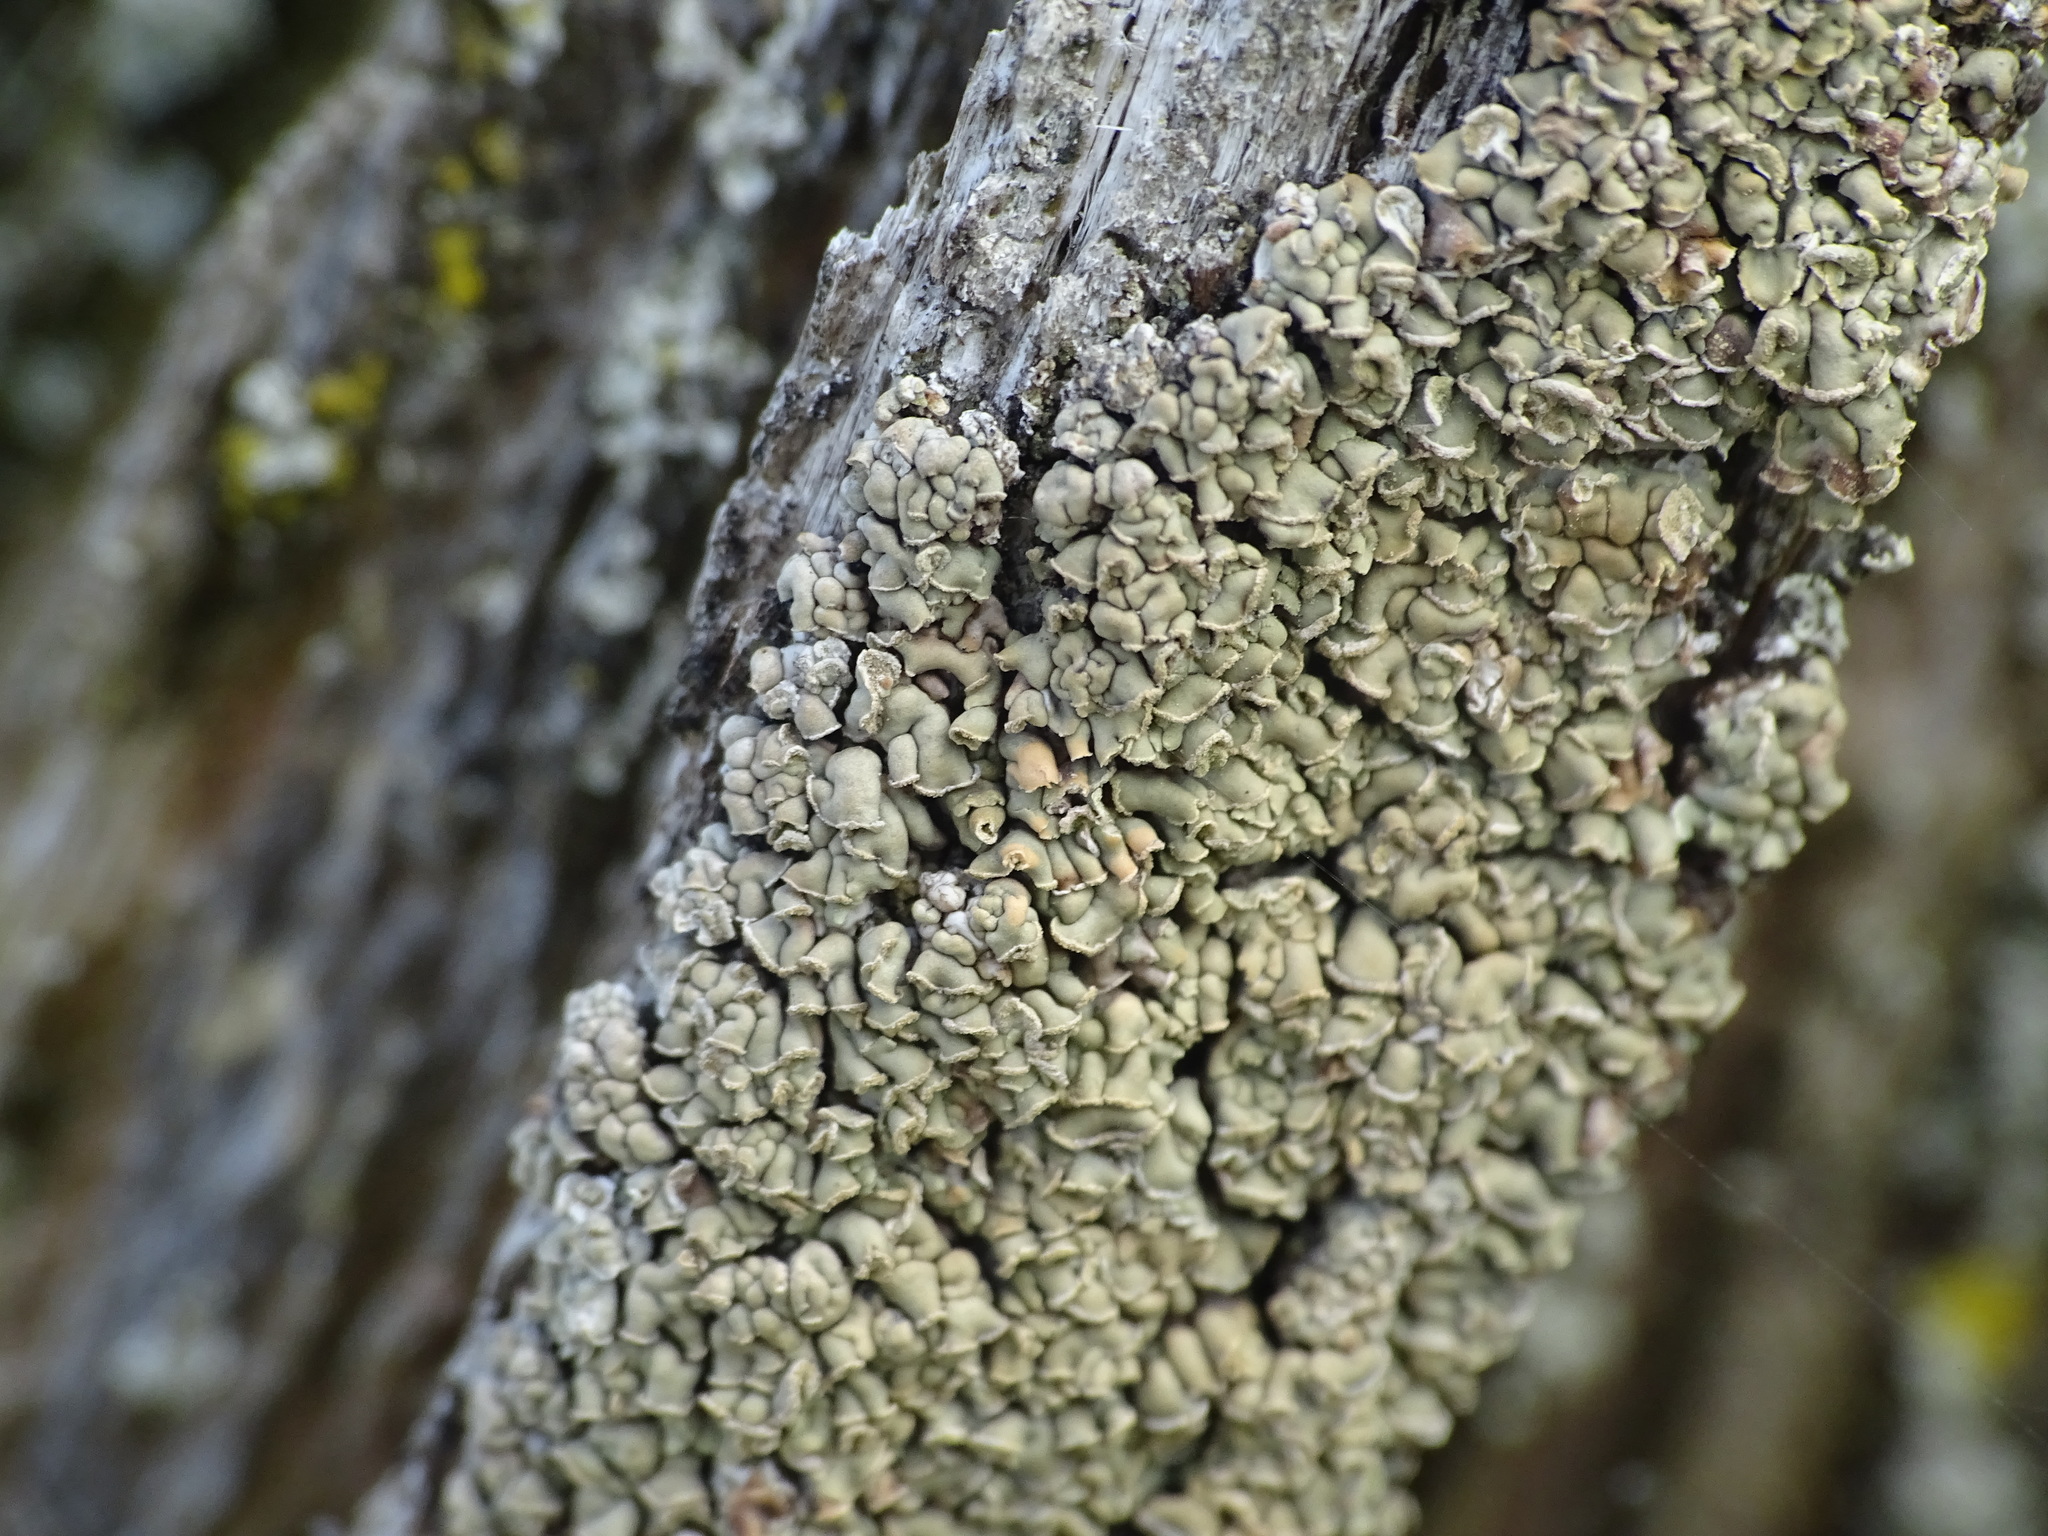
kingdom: Fungi
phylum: Ascomycota
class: Lecanoromycetes
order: Umbilicariales
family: Ophioparmaceae
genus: Hypocenomyce
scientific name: Hypocenomyce scalaris
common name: Common clam lichen
